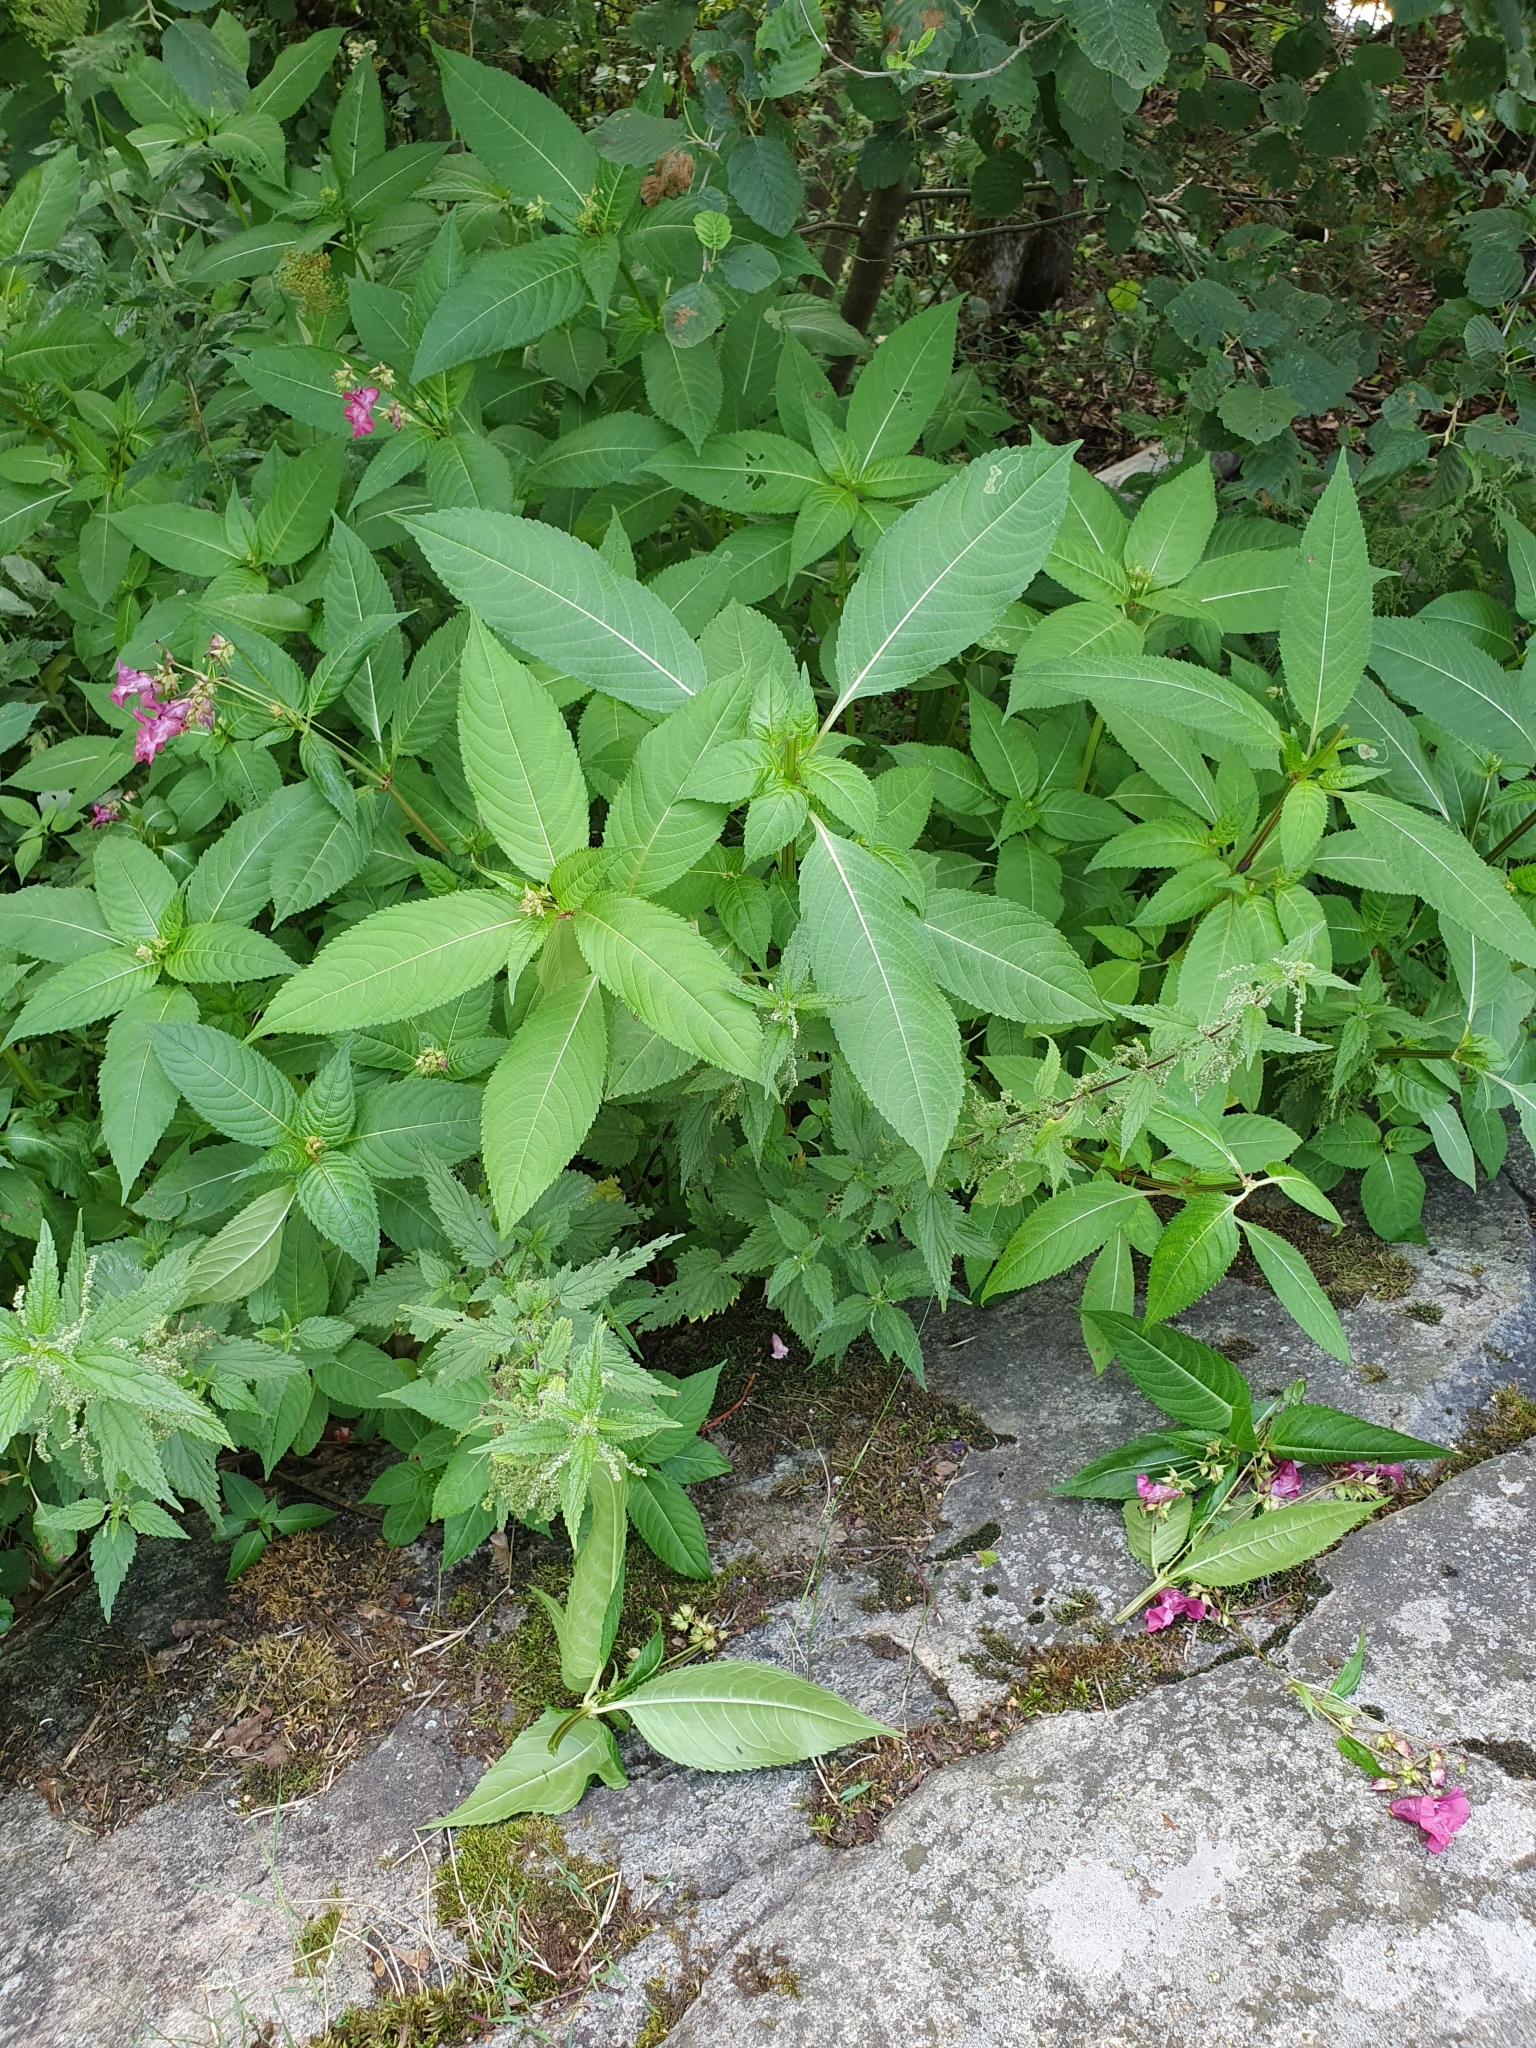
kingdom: Plantae
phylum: Tracheophyta
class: Magnoliopsida
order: Ericales
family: Balsaminaceae
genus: Impatiens
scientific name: Impatiens glandulifera
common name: Himalayan balsam
